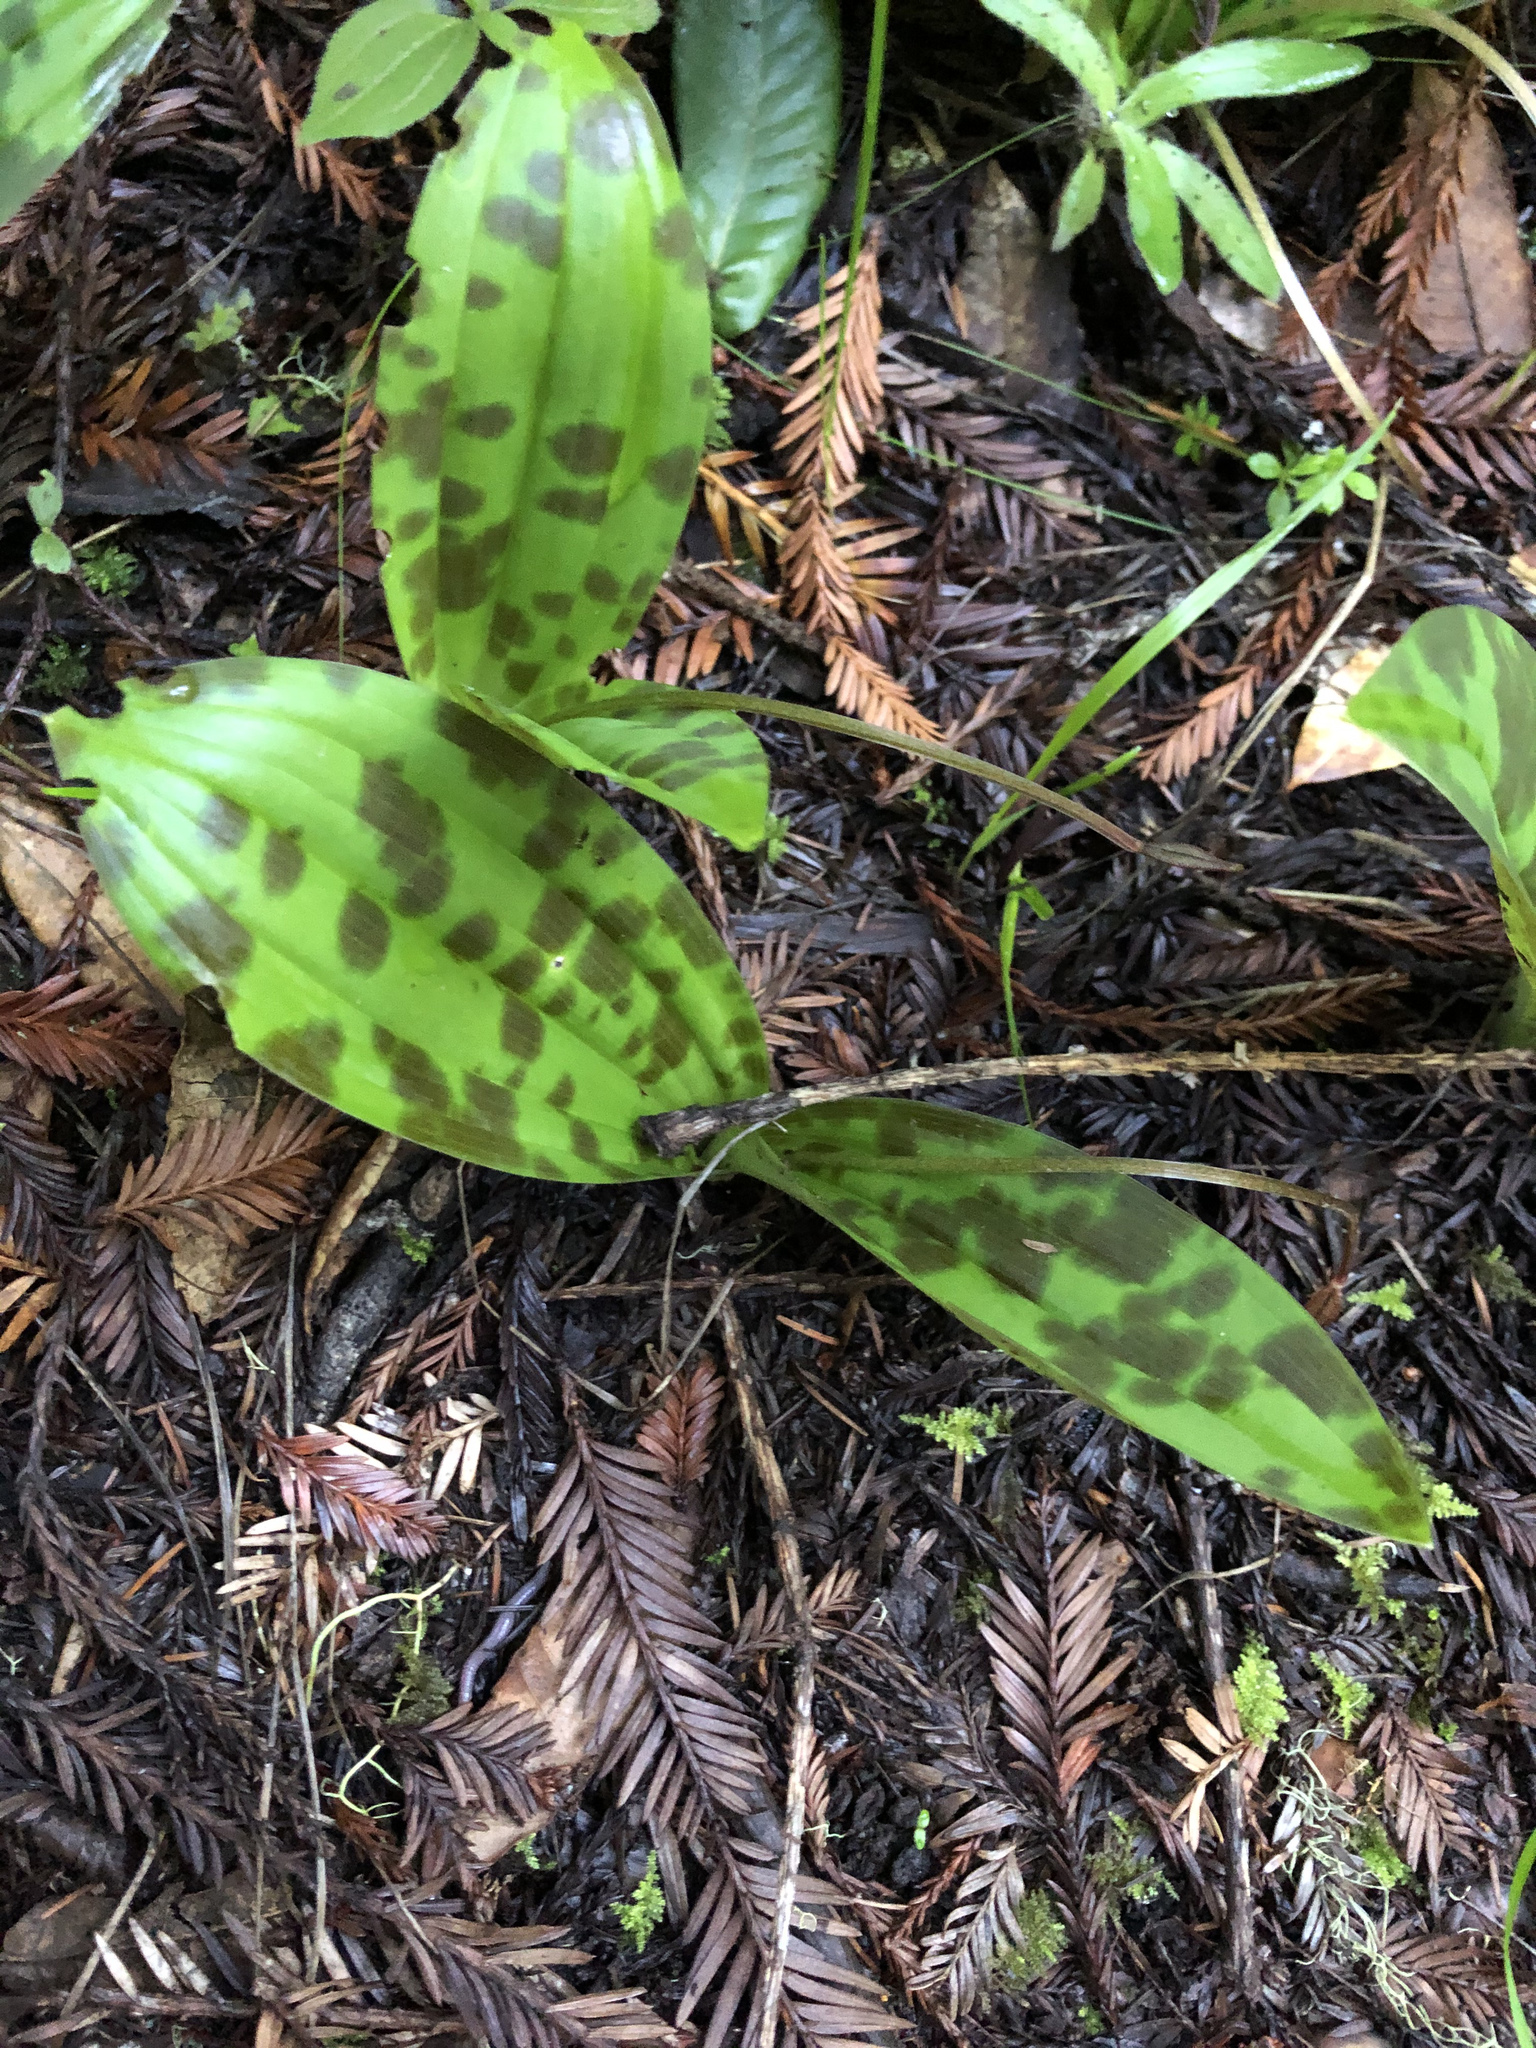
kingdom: Plantae
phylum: Tracheophyta
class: Liliopsida
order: Liliales
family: Liliaceae
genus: Scoliopus
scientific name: Scoliopus bigelovii
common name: Foetid adder's-tongue
